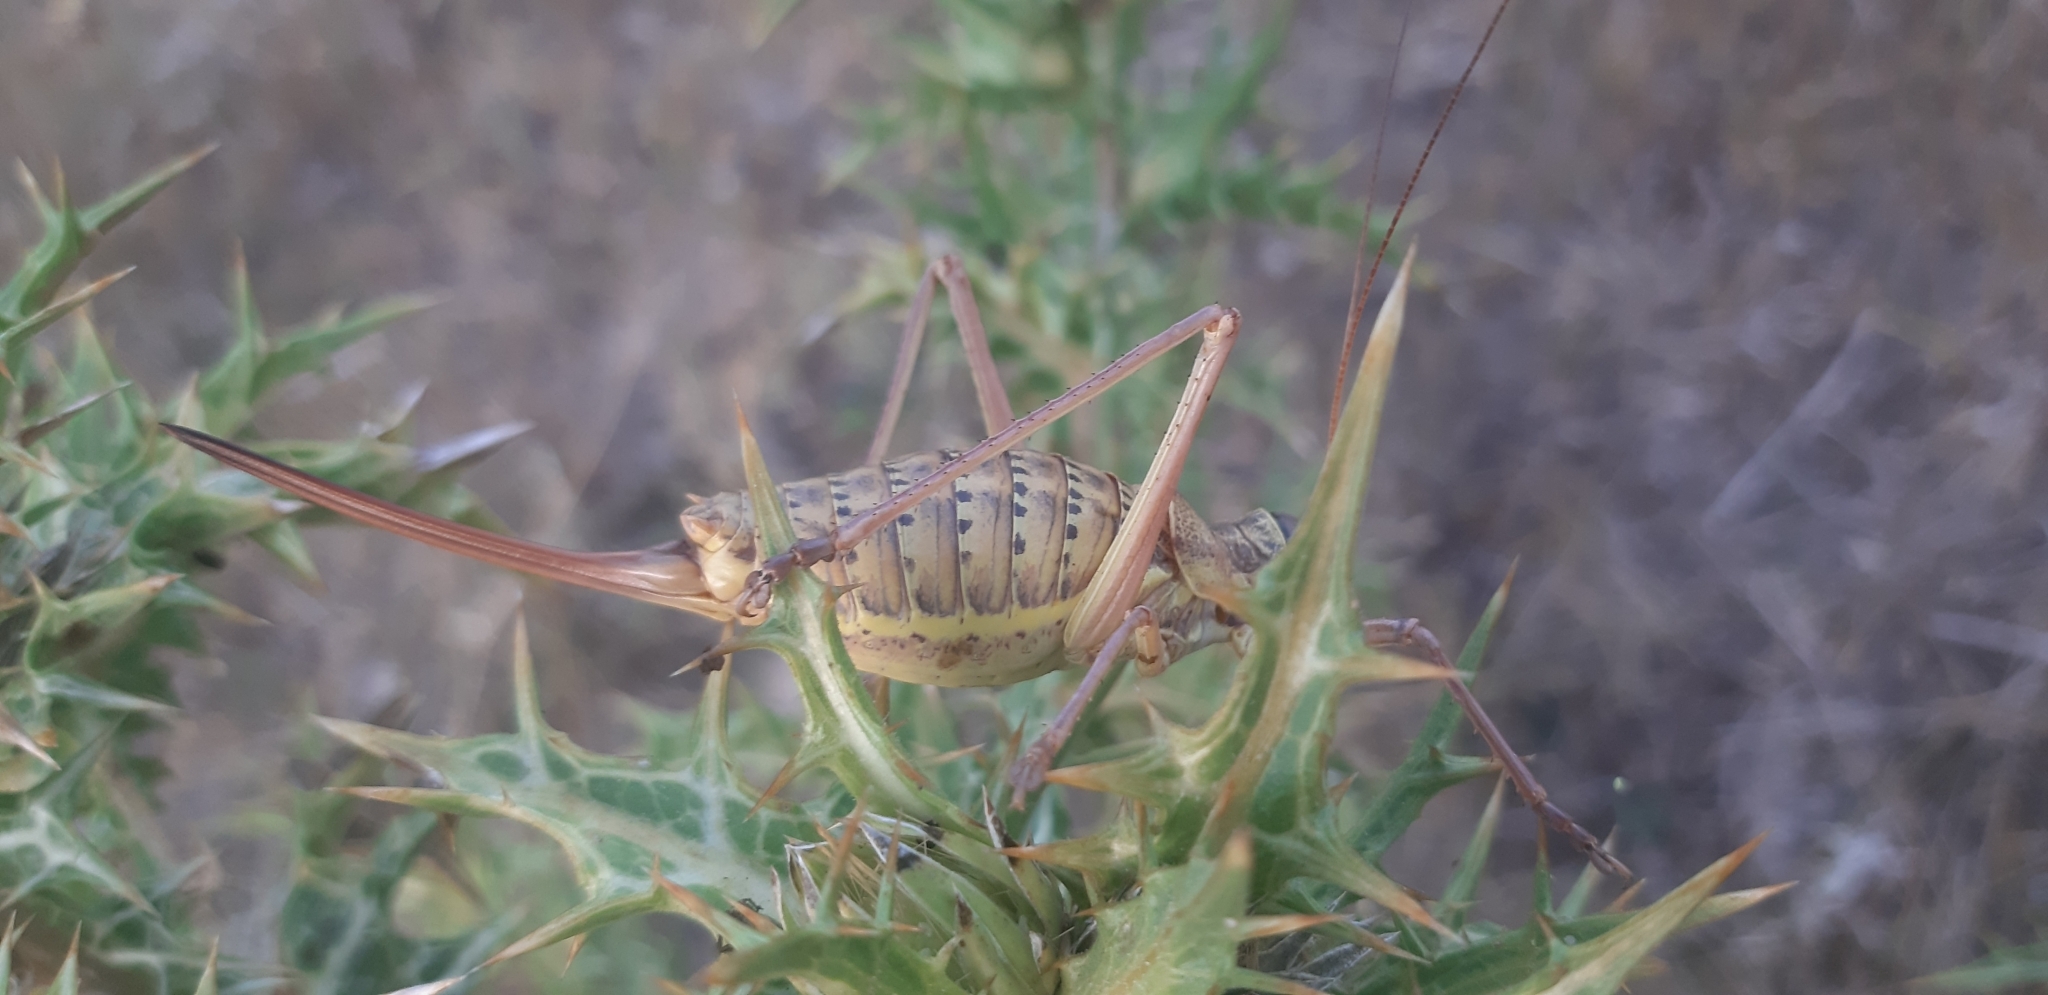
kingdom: Animalia
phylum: Arthropoda
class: Insecta
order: Orthoptera
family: Tettigoniidae
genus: Ephippiger
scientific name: Ephippiger zelleri
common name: Zeller's saddle bush-cricket
